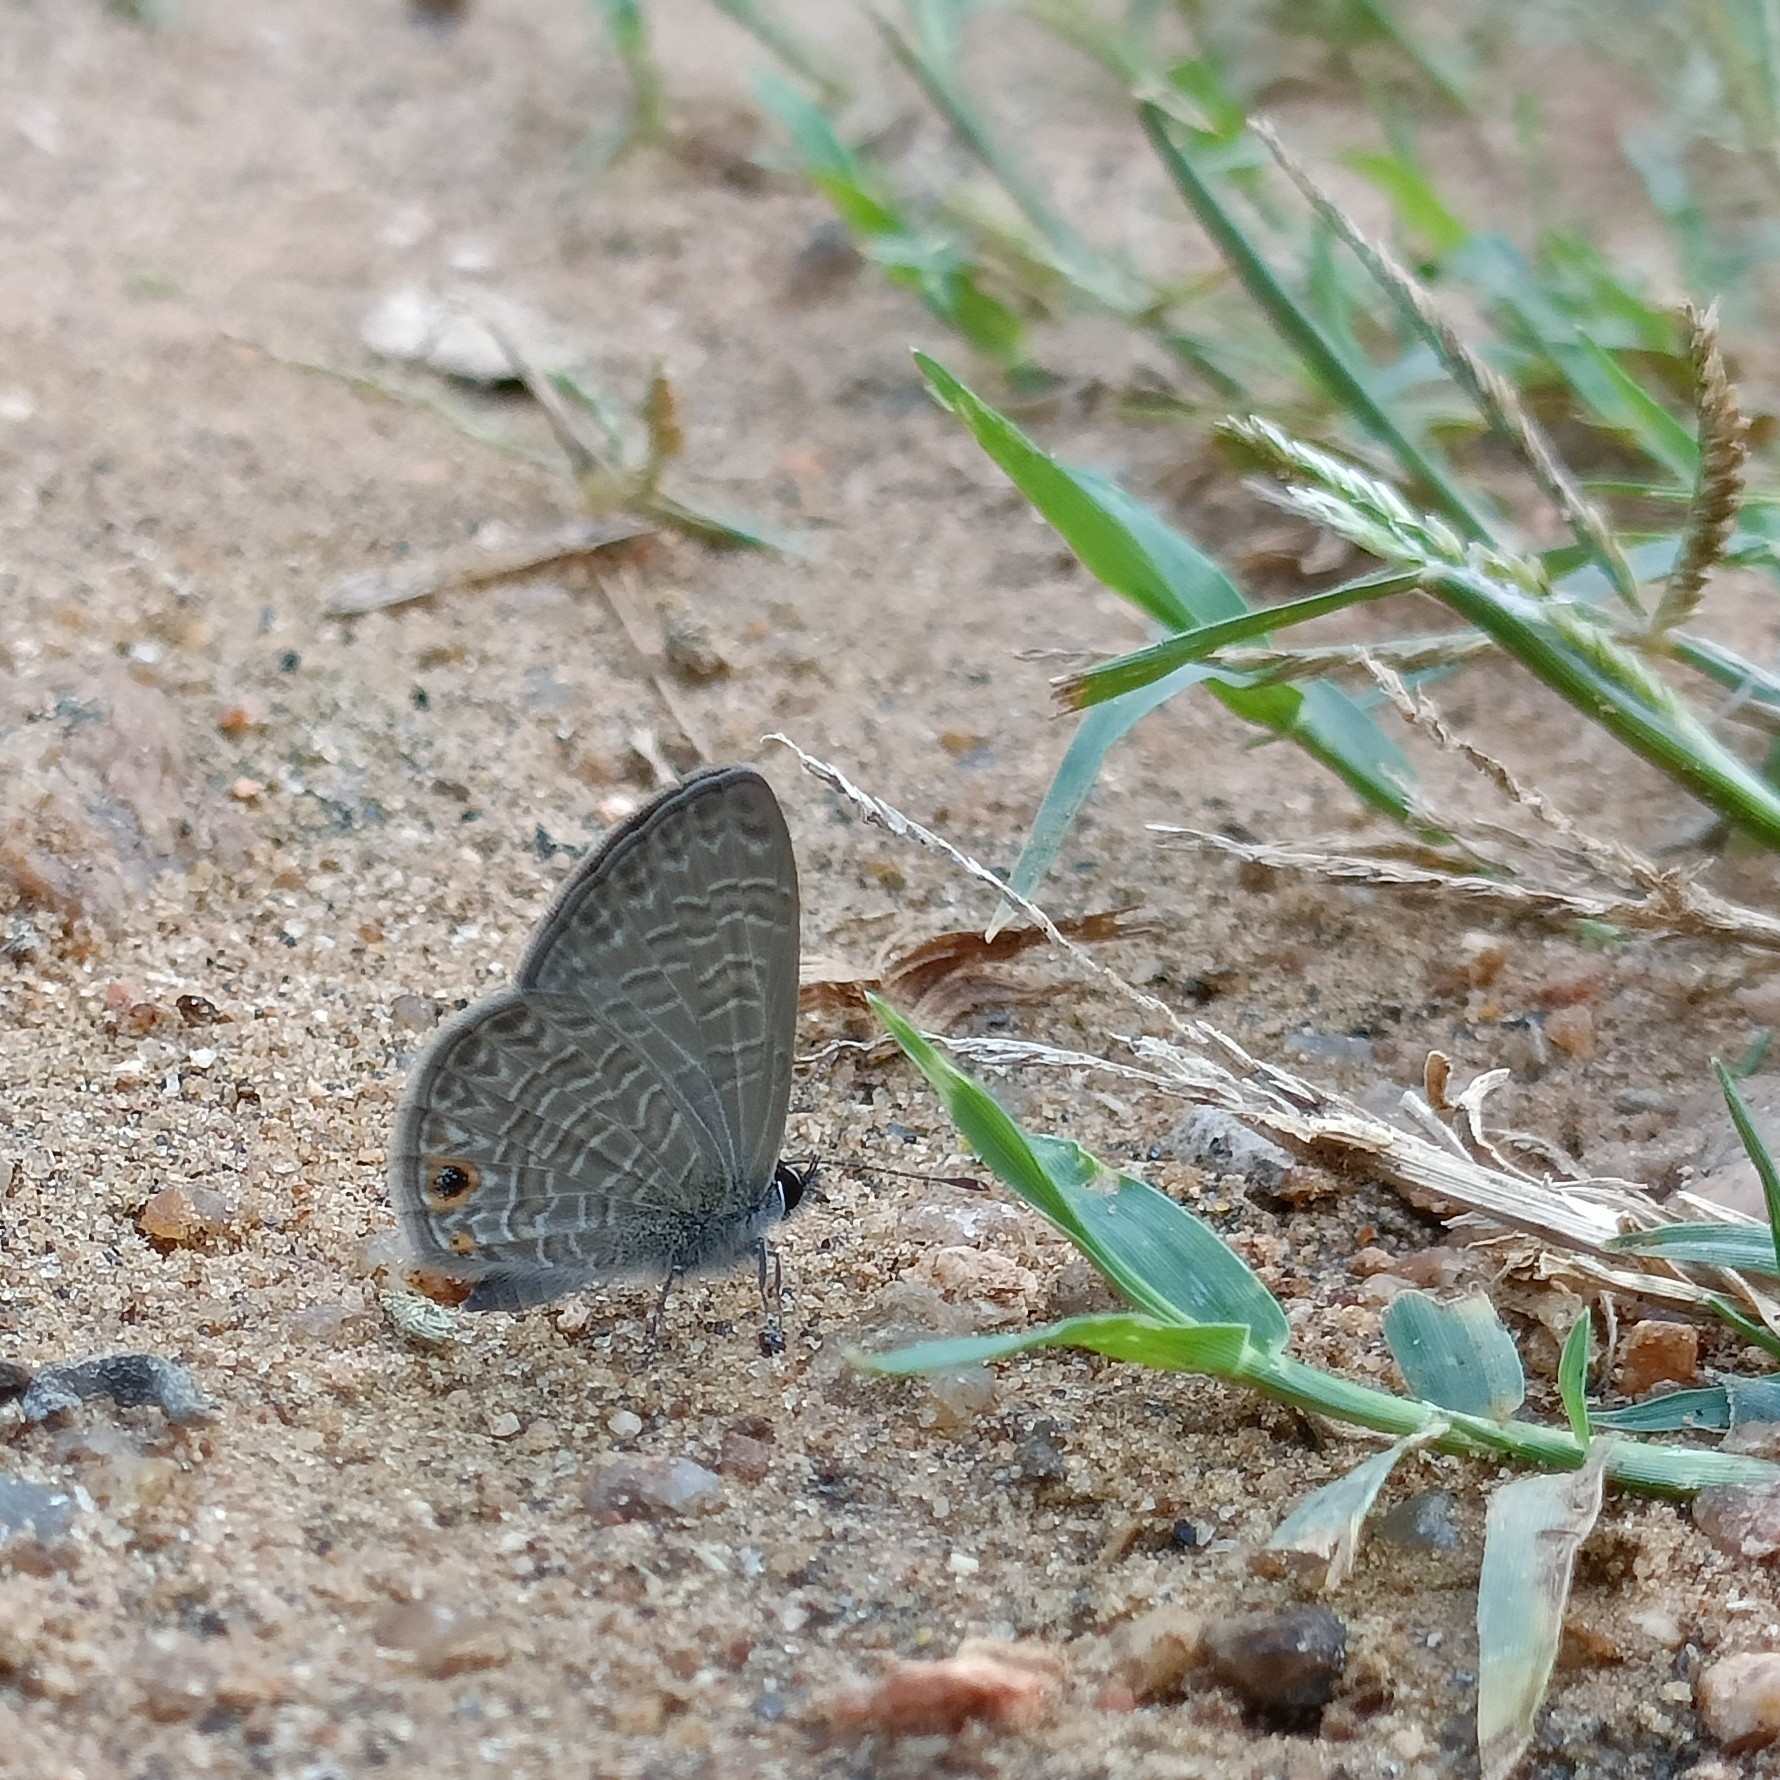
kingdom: Animalia
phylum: Arthropoda
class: Insecta
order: Lepidoptera
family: Lycaenidae
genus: Prosotas
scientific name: Prosotas dubiosa
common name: Tailless lineblue
